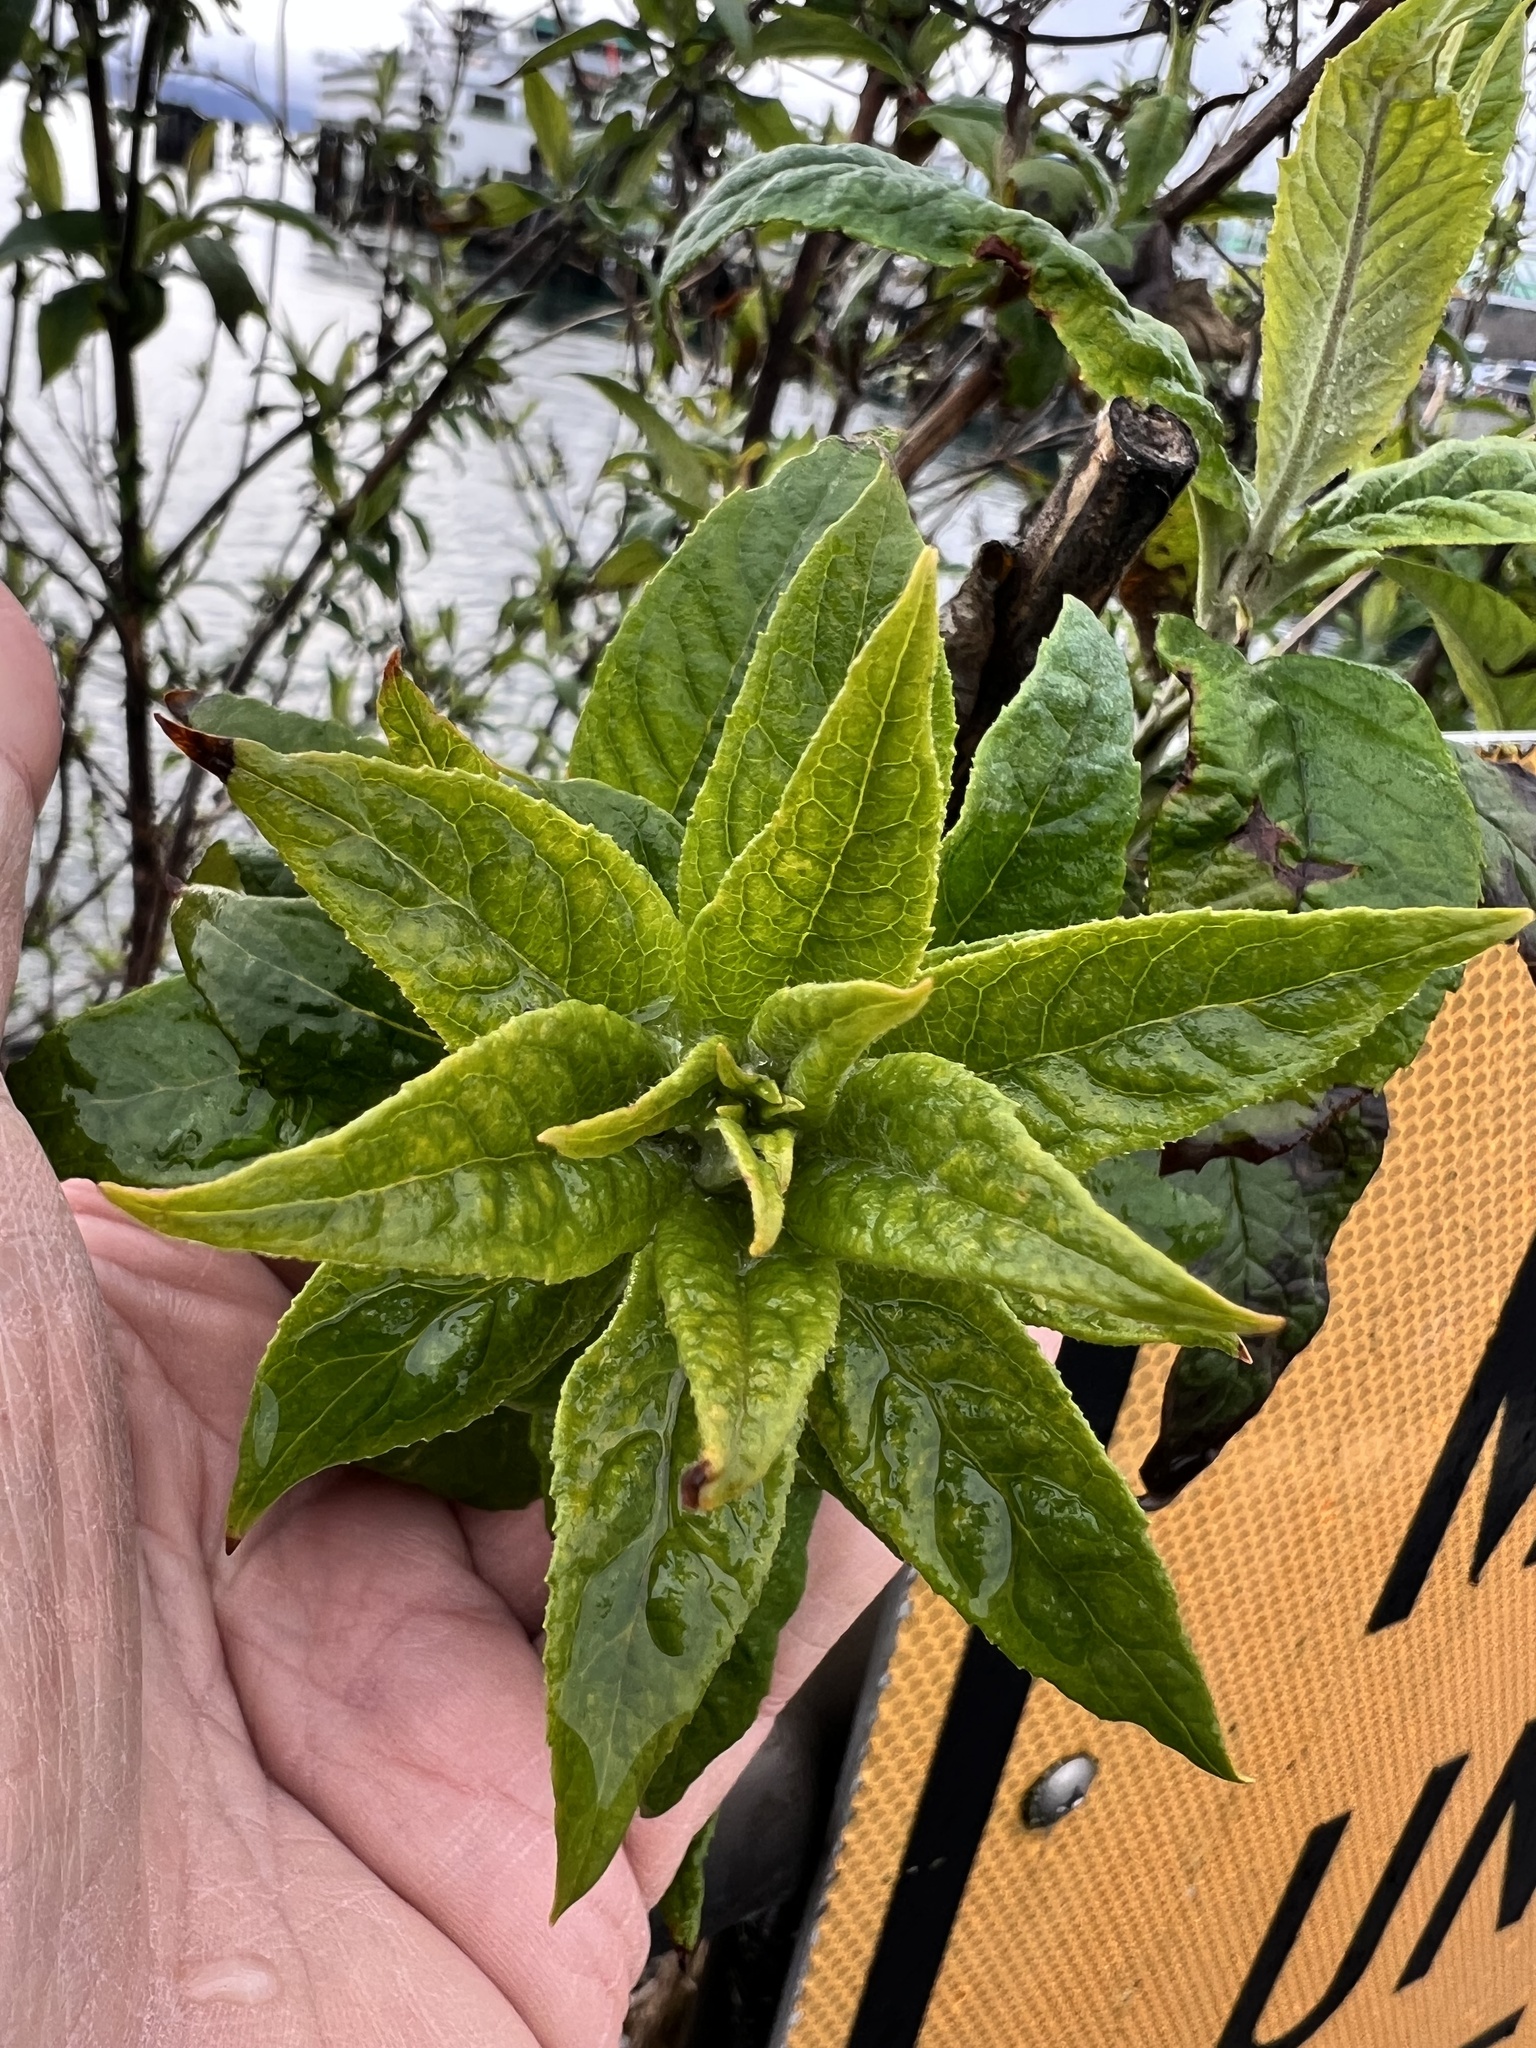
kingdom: Plantae
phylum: Tracheophyta
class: Magnoliopsida
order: Lamiales
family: Scrophulariaceae
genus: Buddleja
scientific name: Buddleja davidii
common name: Butterfly-bush
